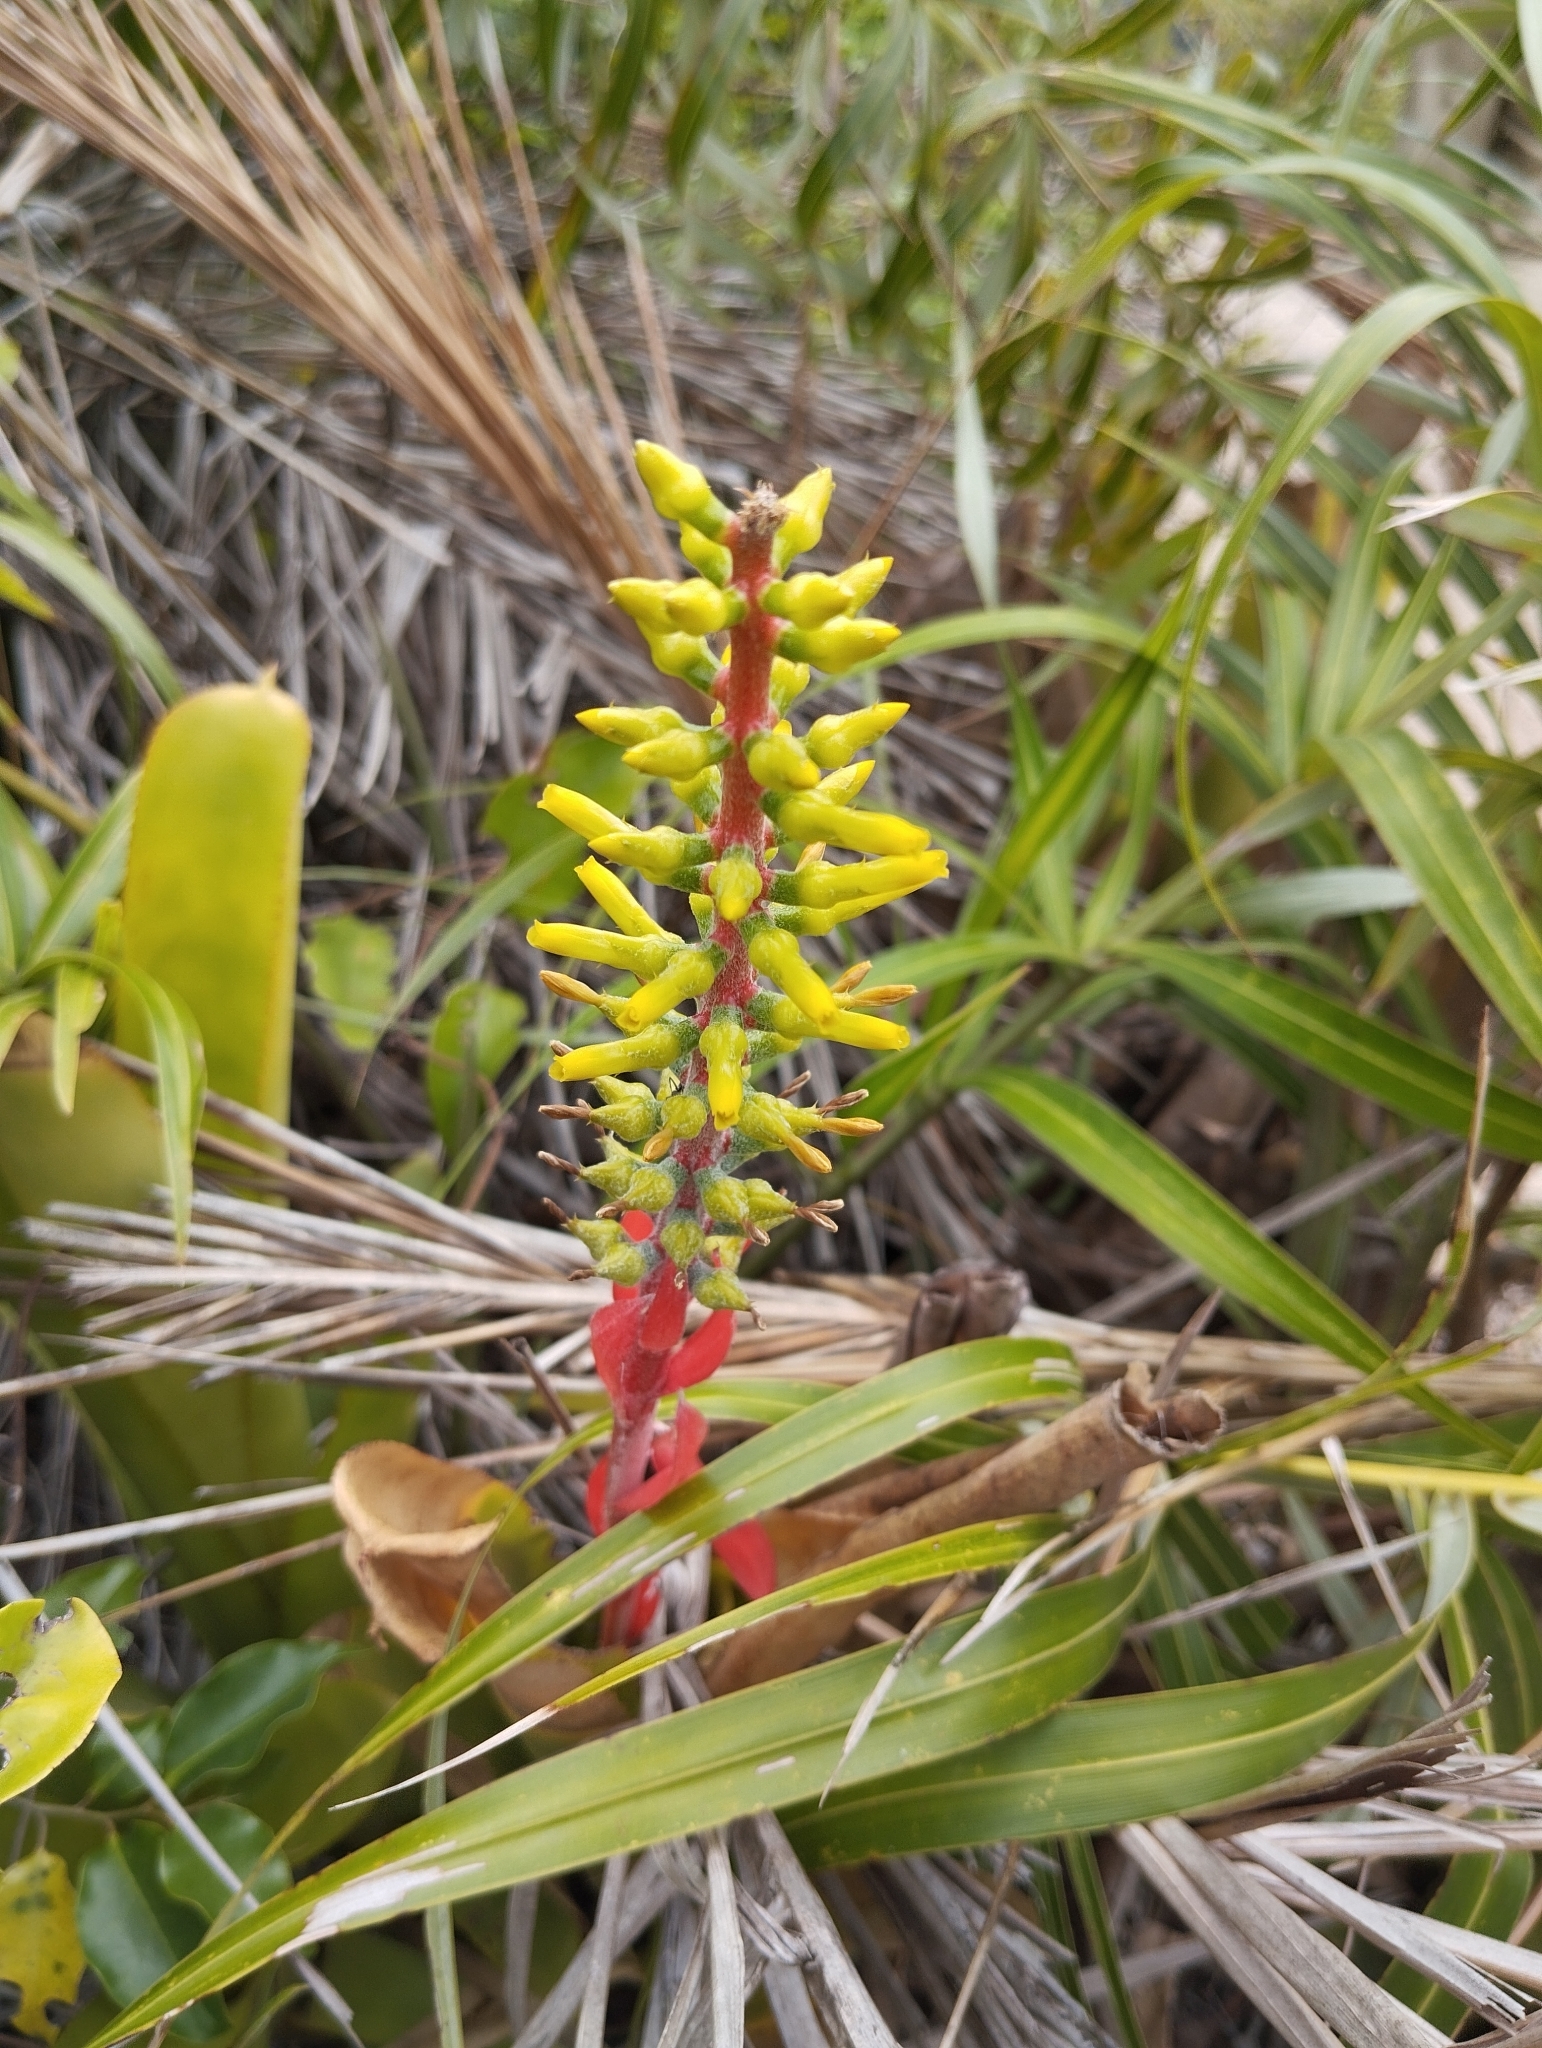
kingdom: Plantae
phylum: Tracheophyta
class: Liliopsida
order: Poales
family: Bromeliaceae
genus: Aechmea
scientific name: Aechmea nudicaulis
